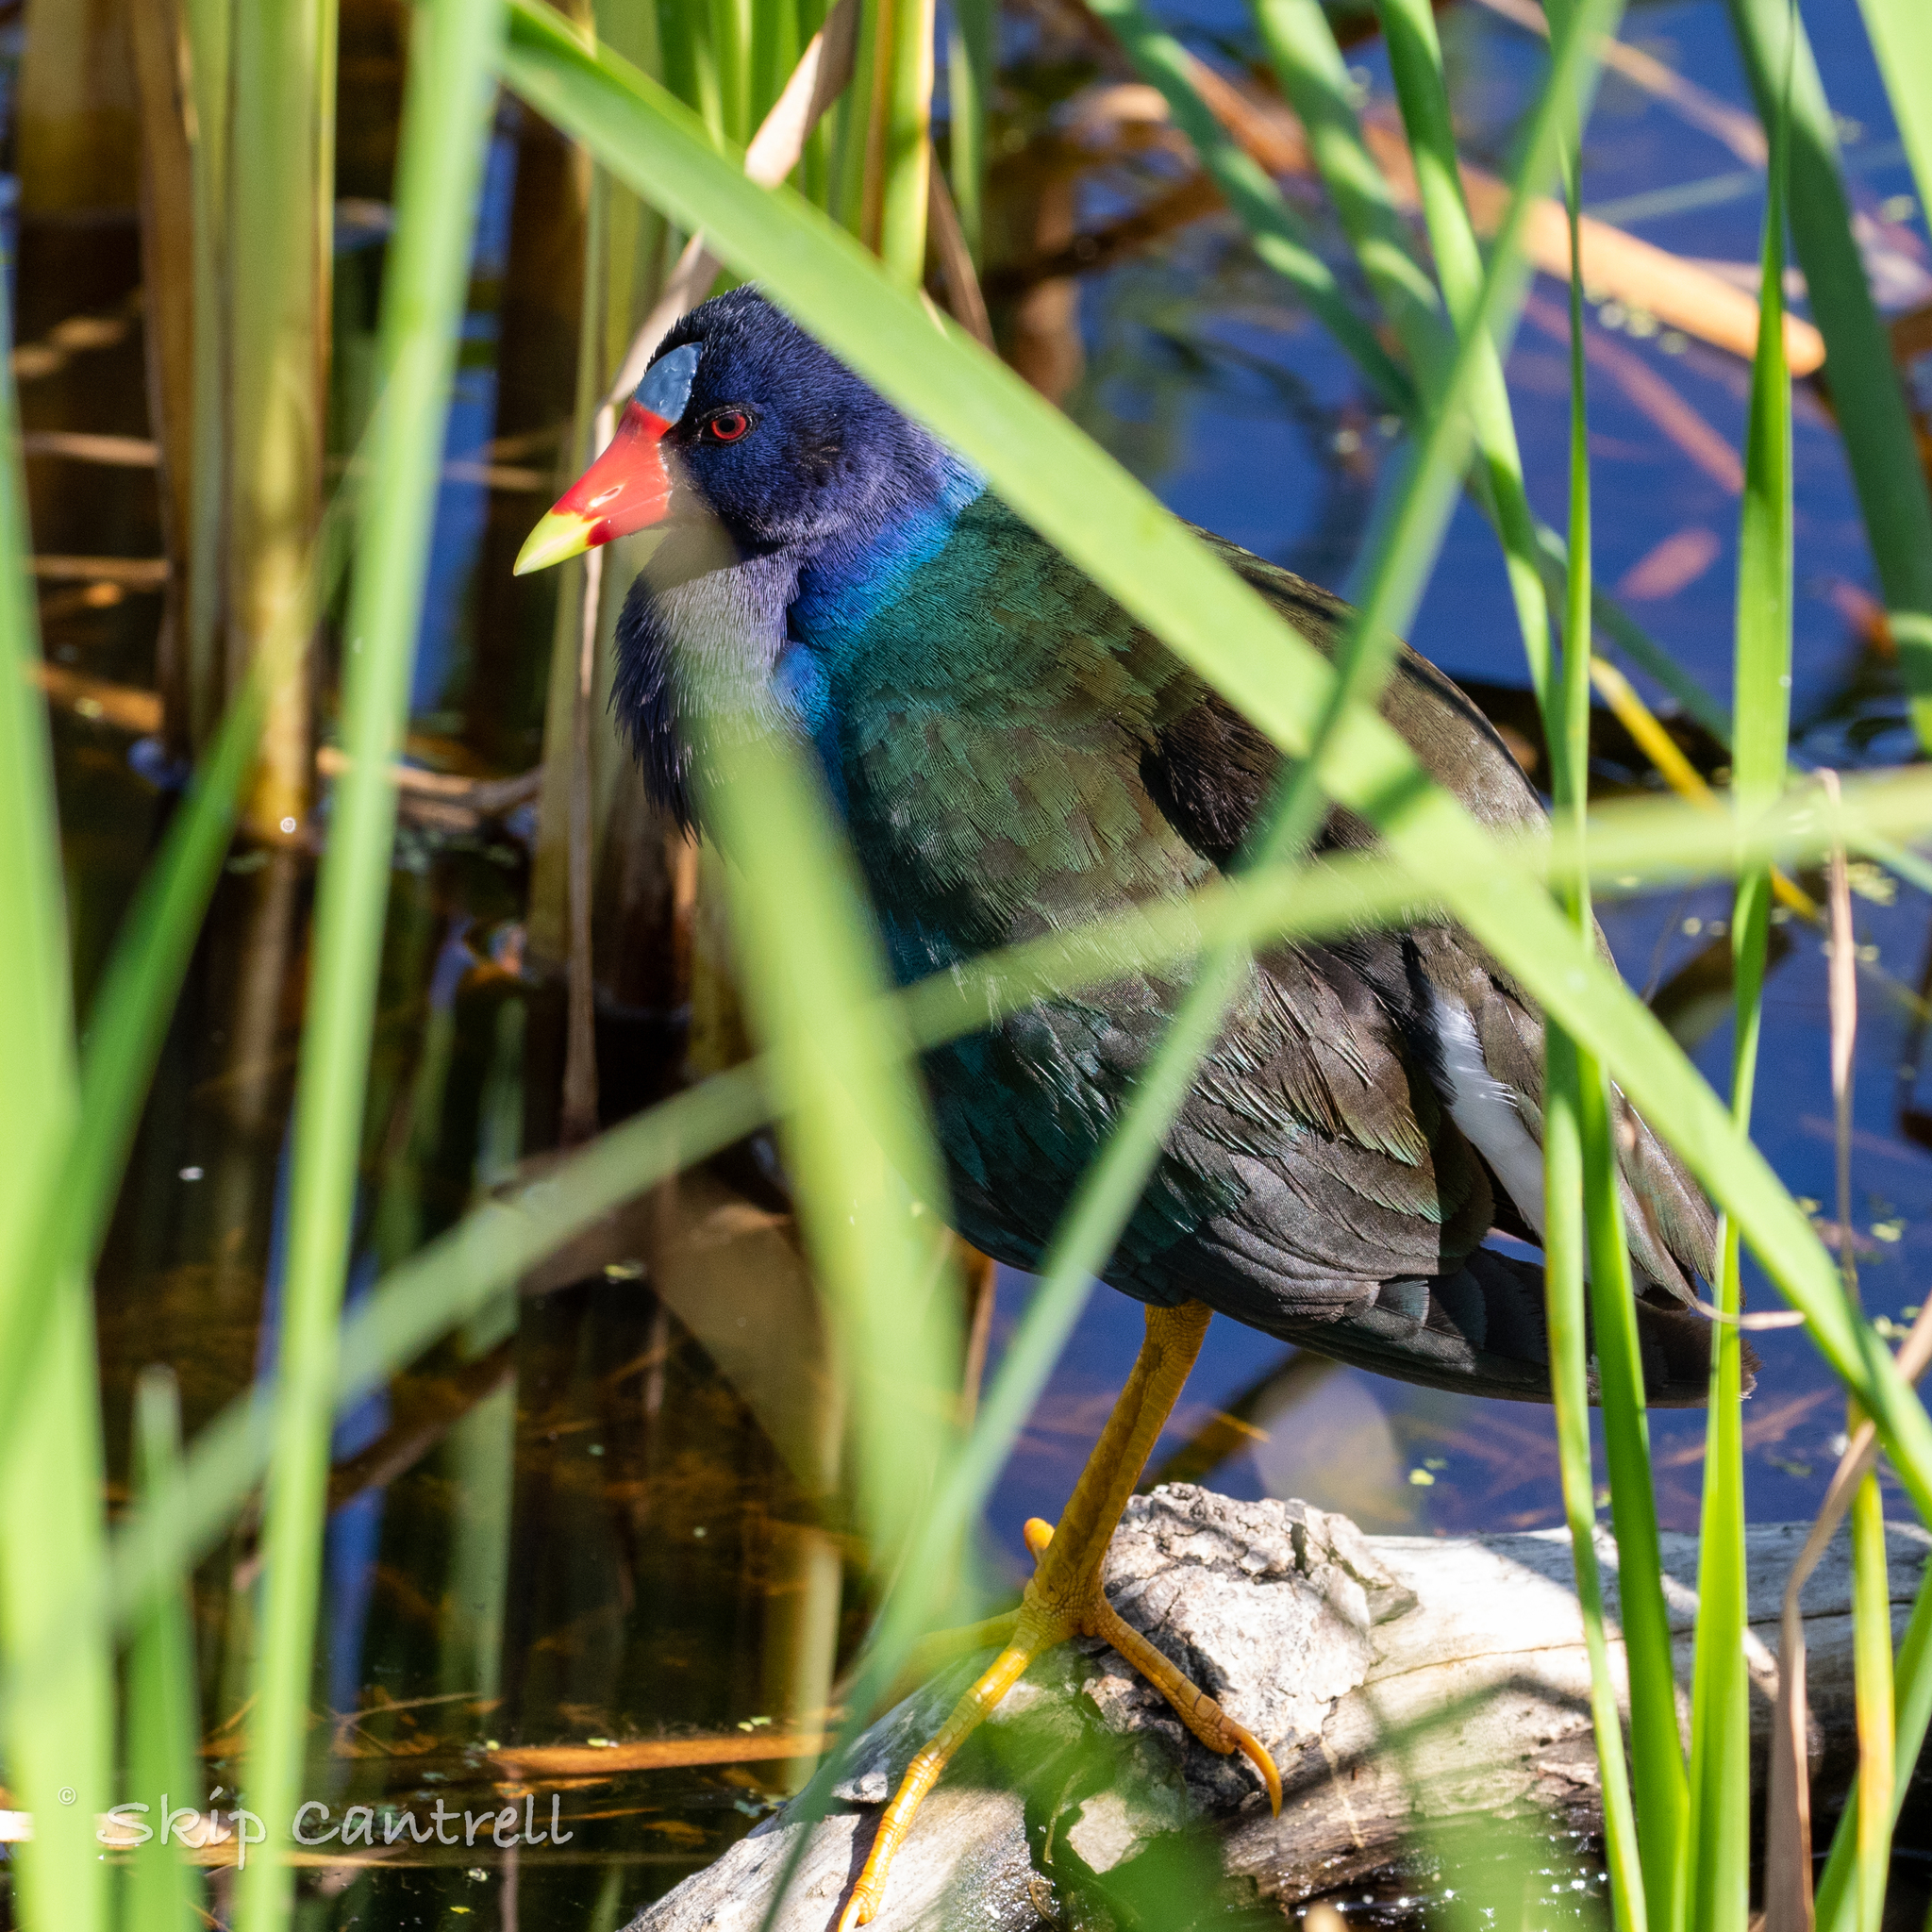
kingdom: Animalia
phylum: Chordata
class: Aves
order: Gruiformes
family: Rallidae
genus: Porphyrio
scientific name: Porphyrio martinica
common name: Purple gallinule
